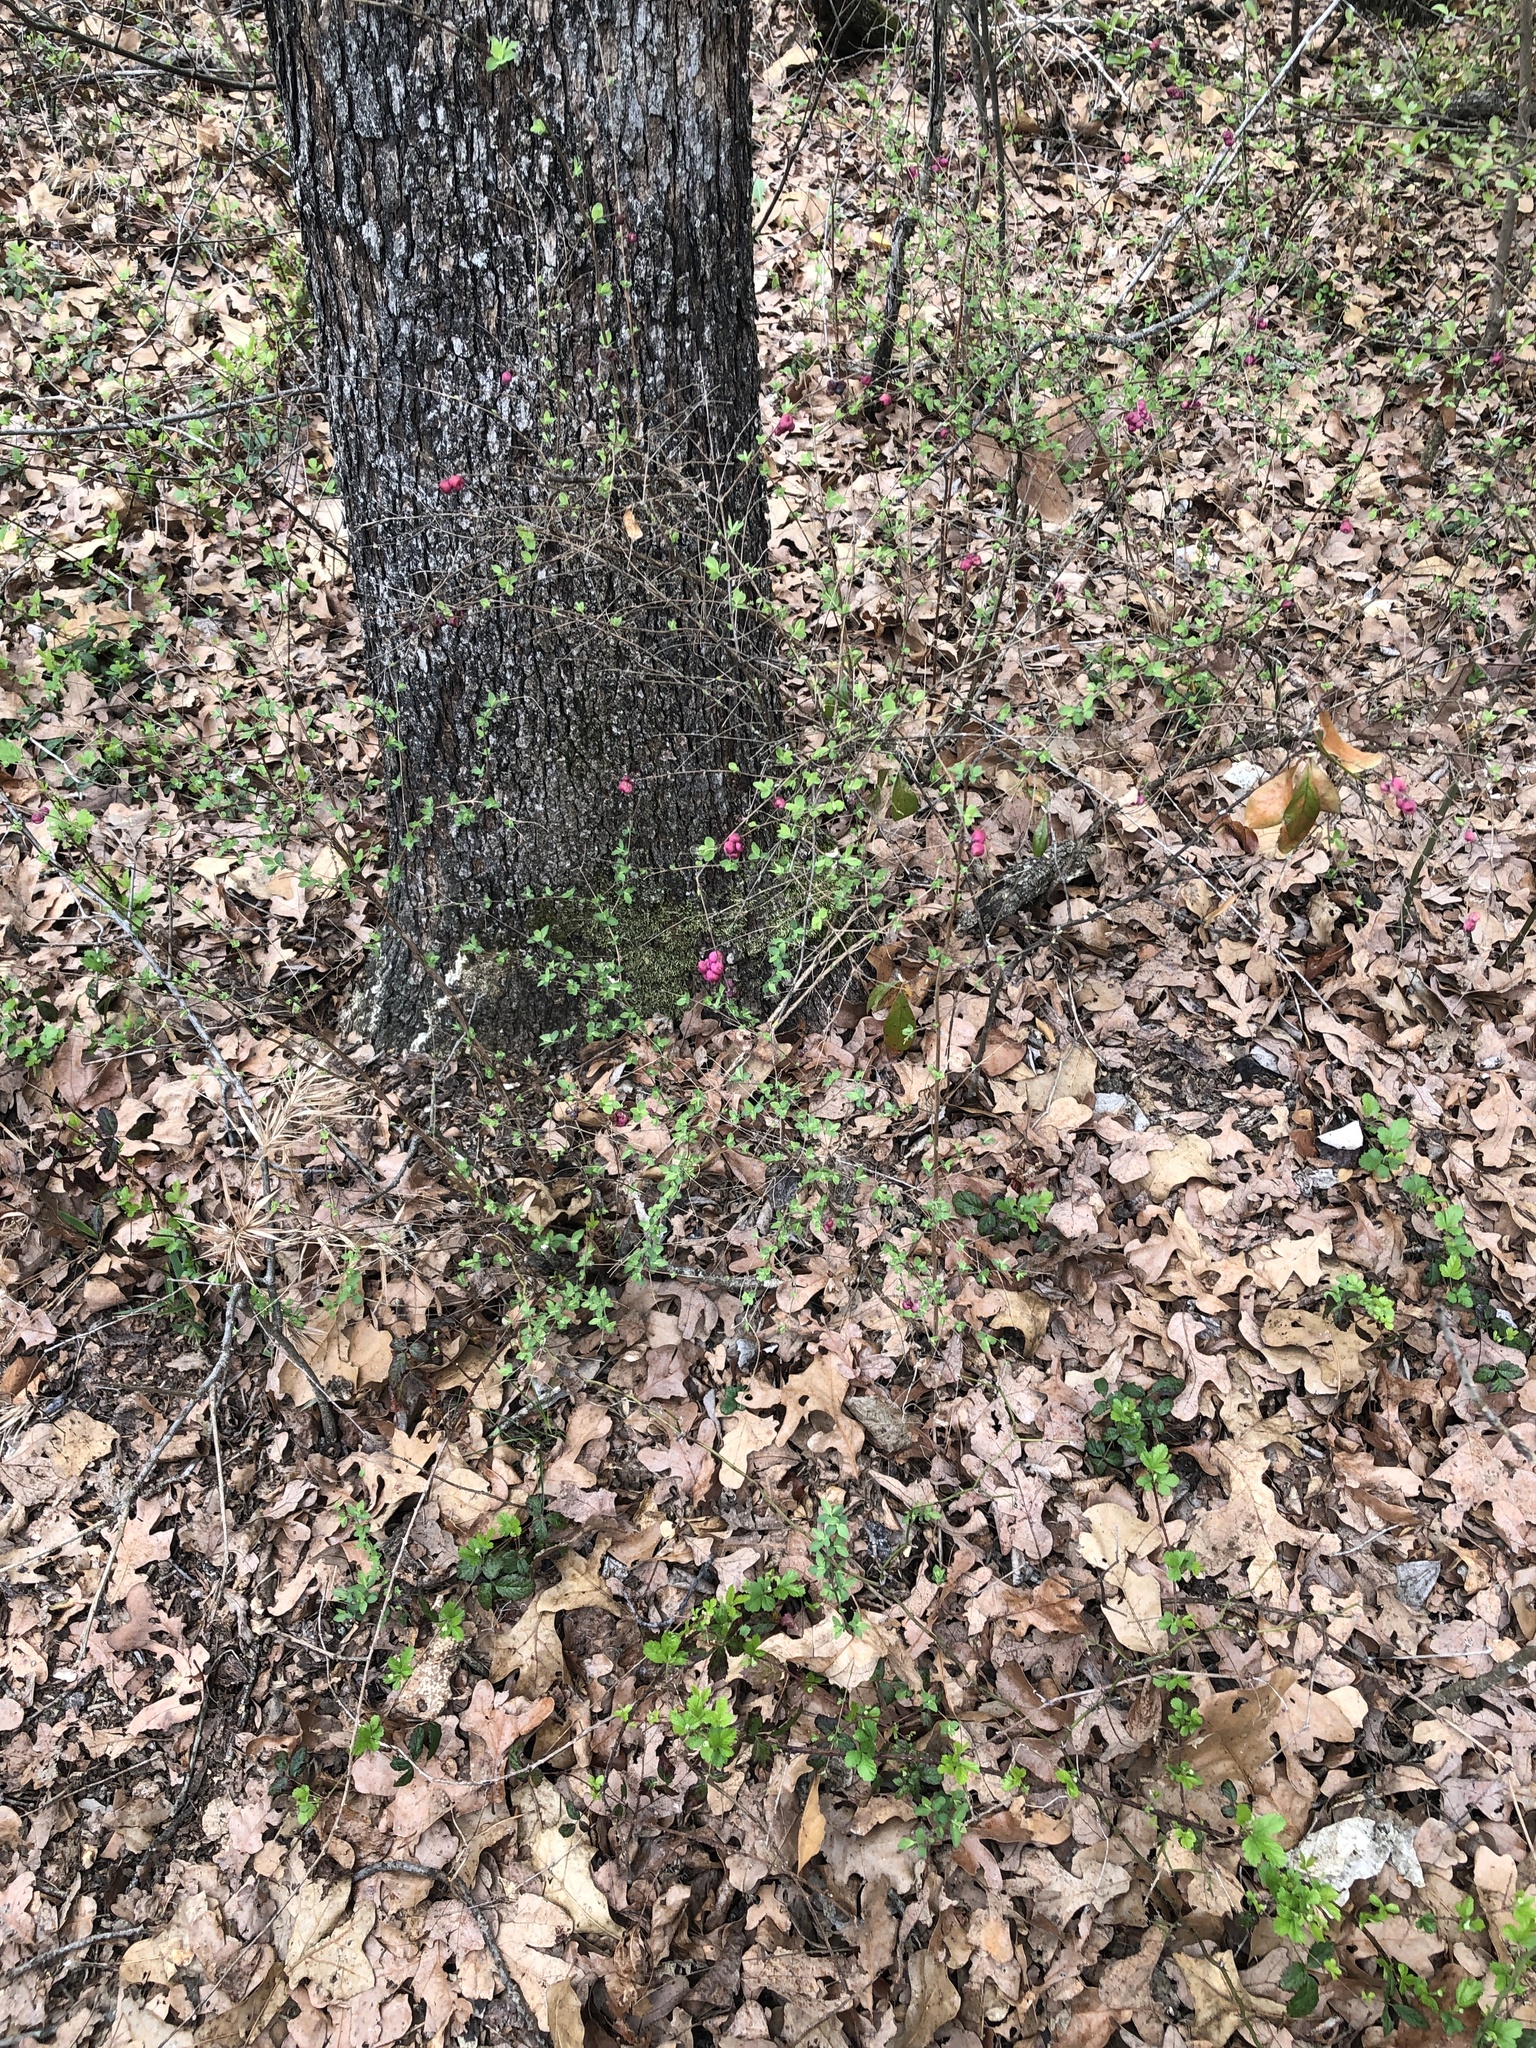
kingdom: Plantae
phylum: Tracheophyta
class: Magnoliopsida
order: Dipsacales
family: Caprifoliaceae
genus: Symphoricarpos
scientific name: Symphoricarpos orbiculatus
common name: Coralberry
